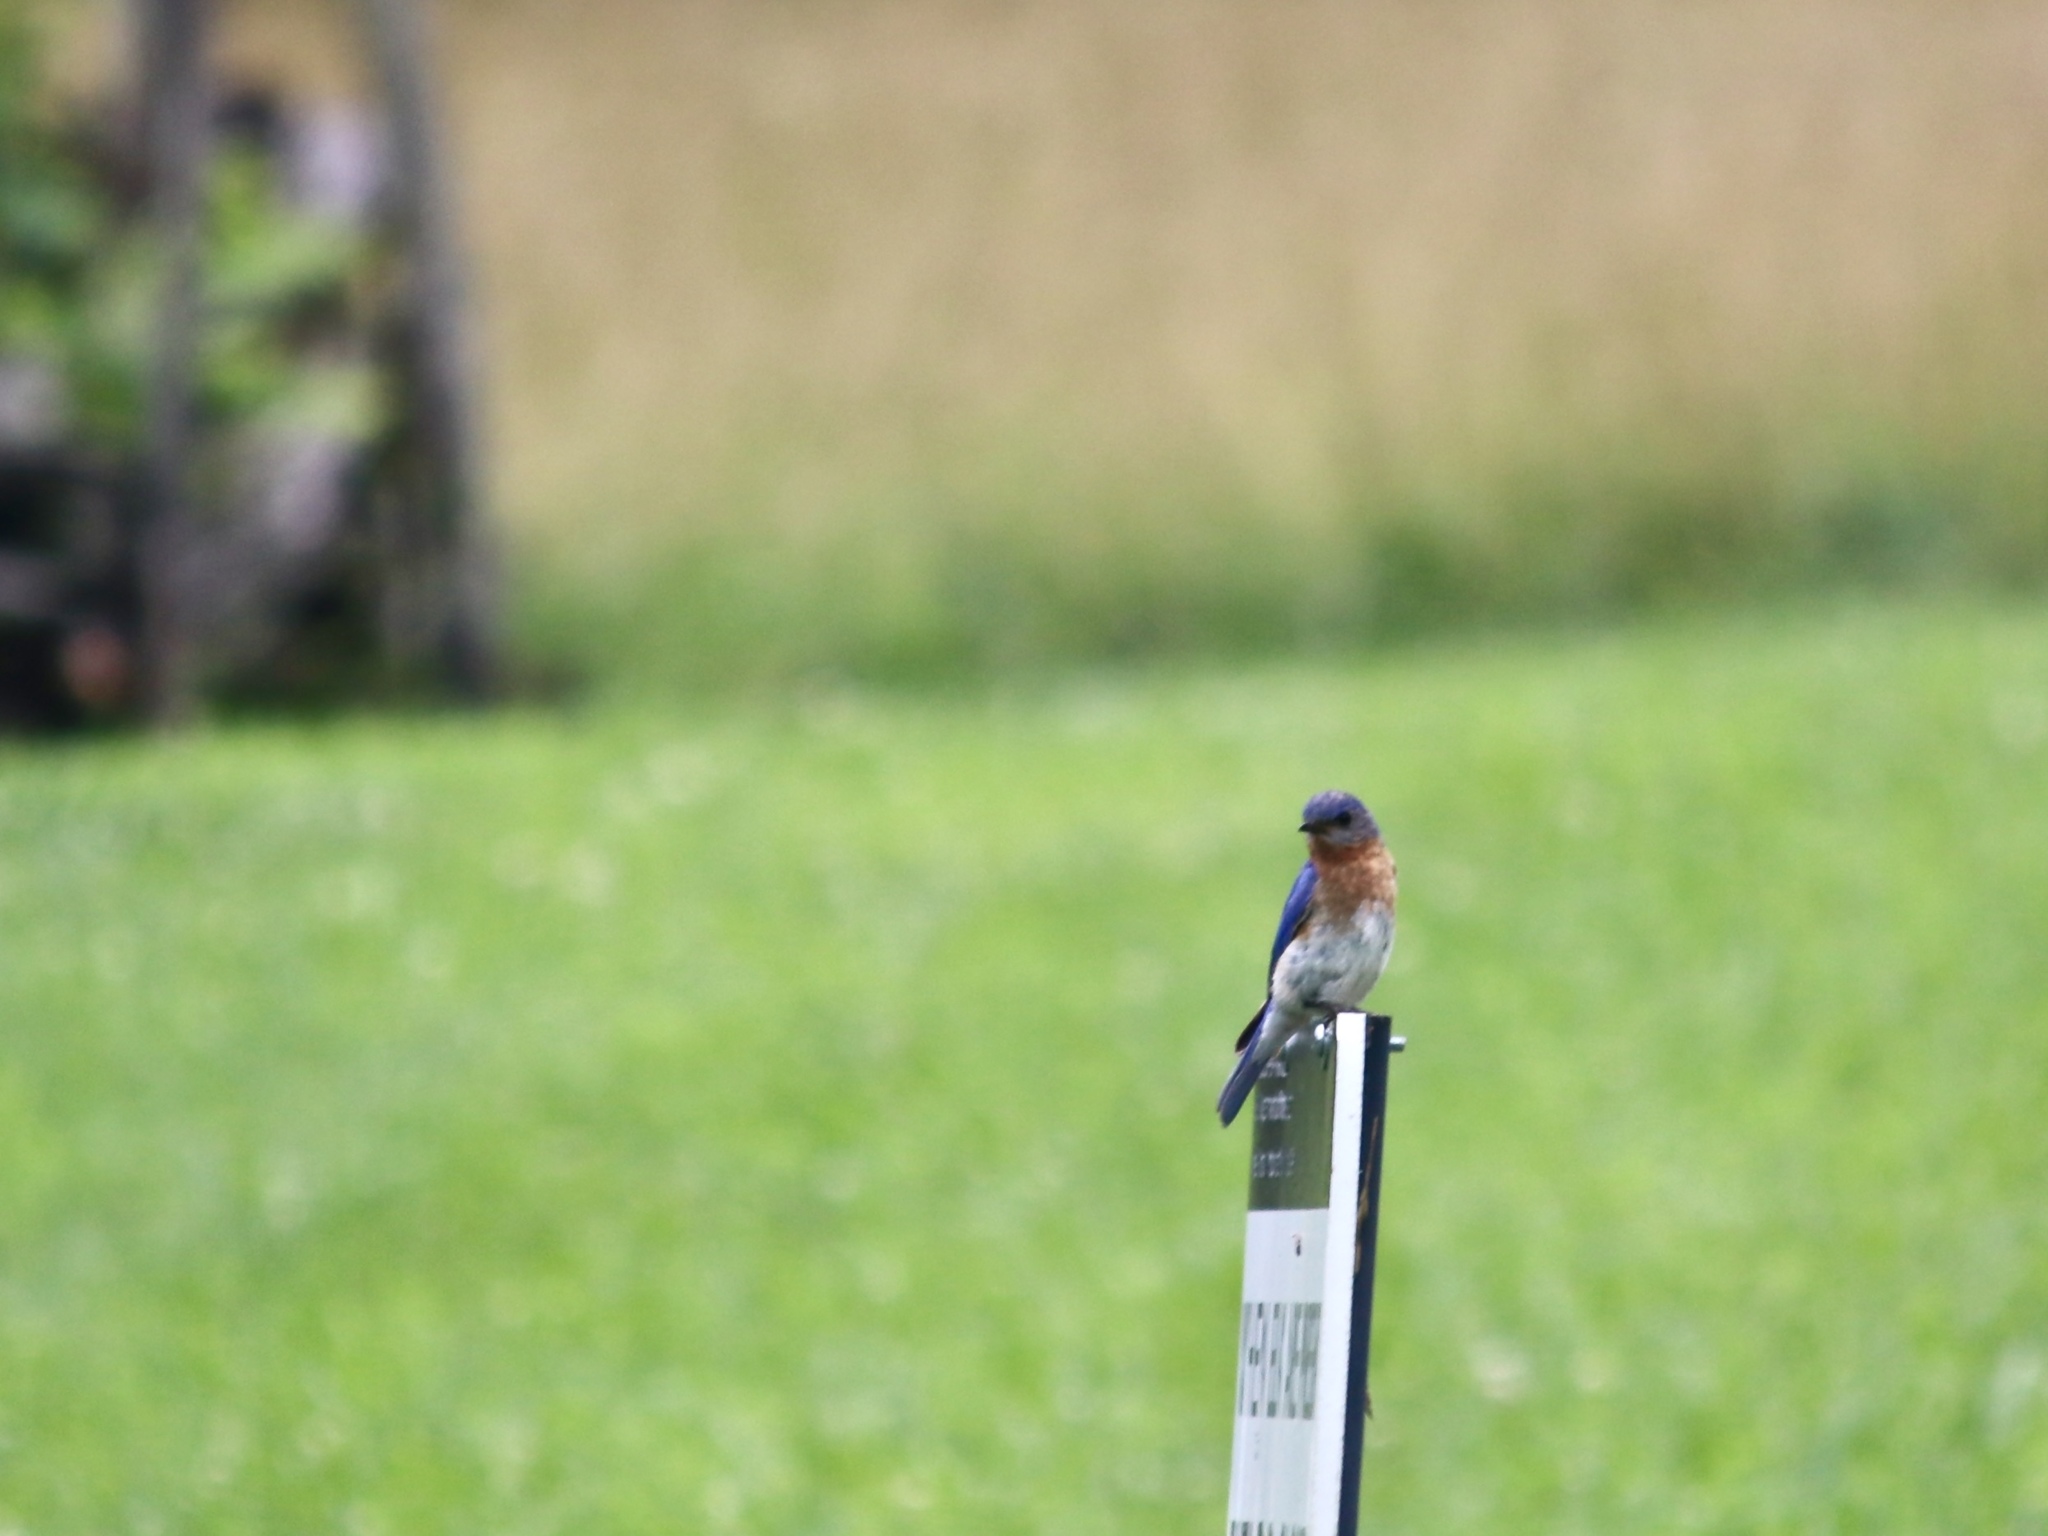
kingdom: Animalia
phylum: Chordata
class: Aves
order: Passeriformes
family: Turdidae
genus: Sialia
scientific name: Sialia sialis
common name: Eastern bluebird
